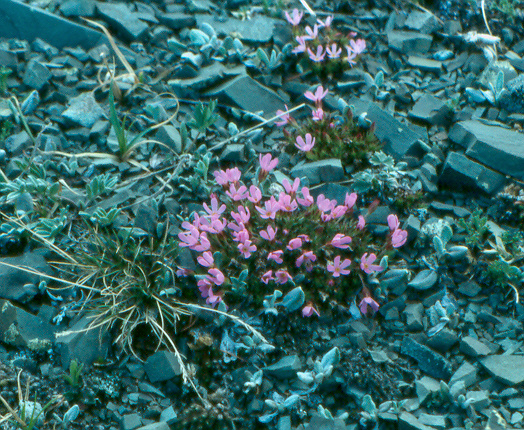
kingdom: Plantae
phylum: Tracheophyta
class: Magnoliopsida
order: Ericales
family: Primulaceae
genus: Androsace
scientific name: Androsace montana
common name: Rocky mountain dwarf-primrose
